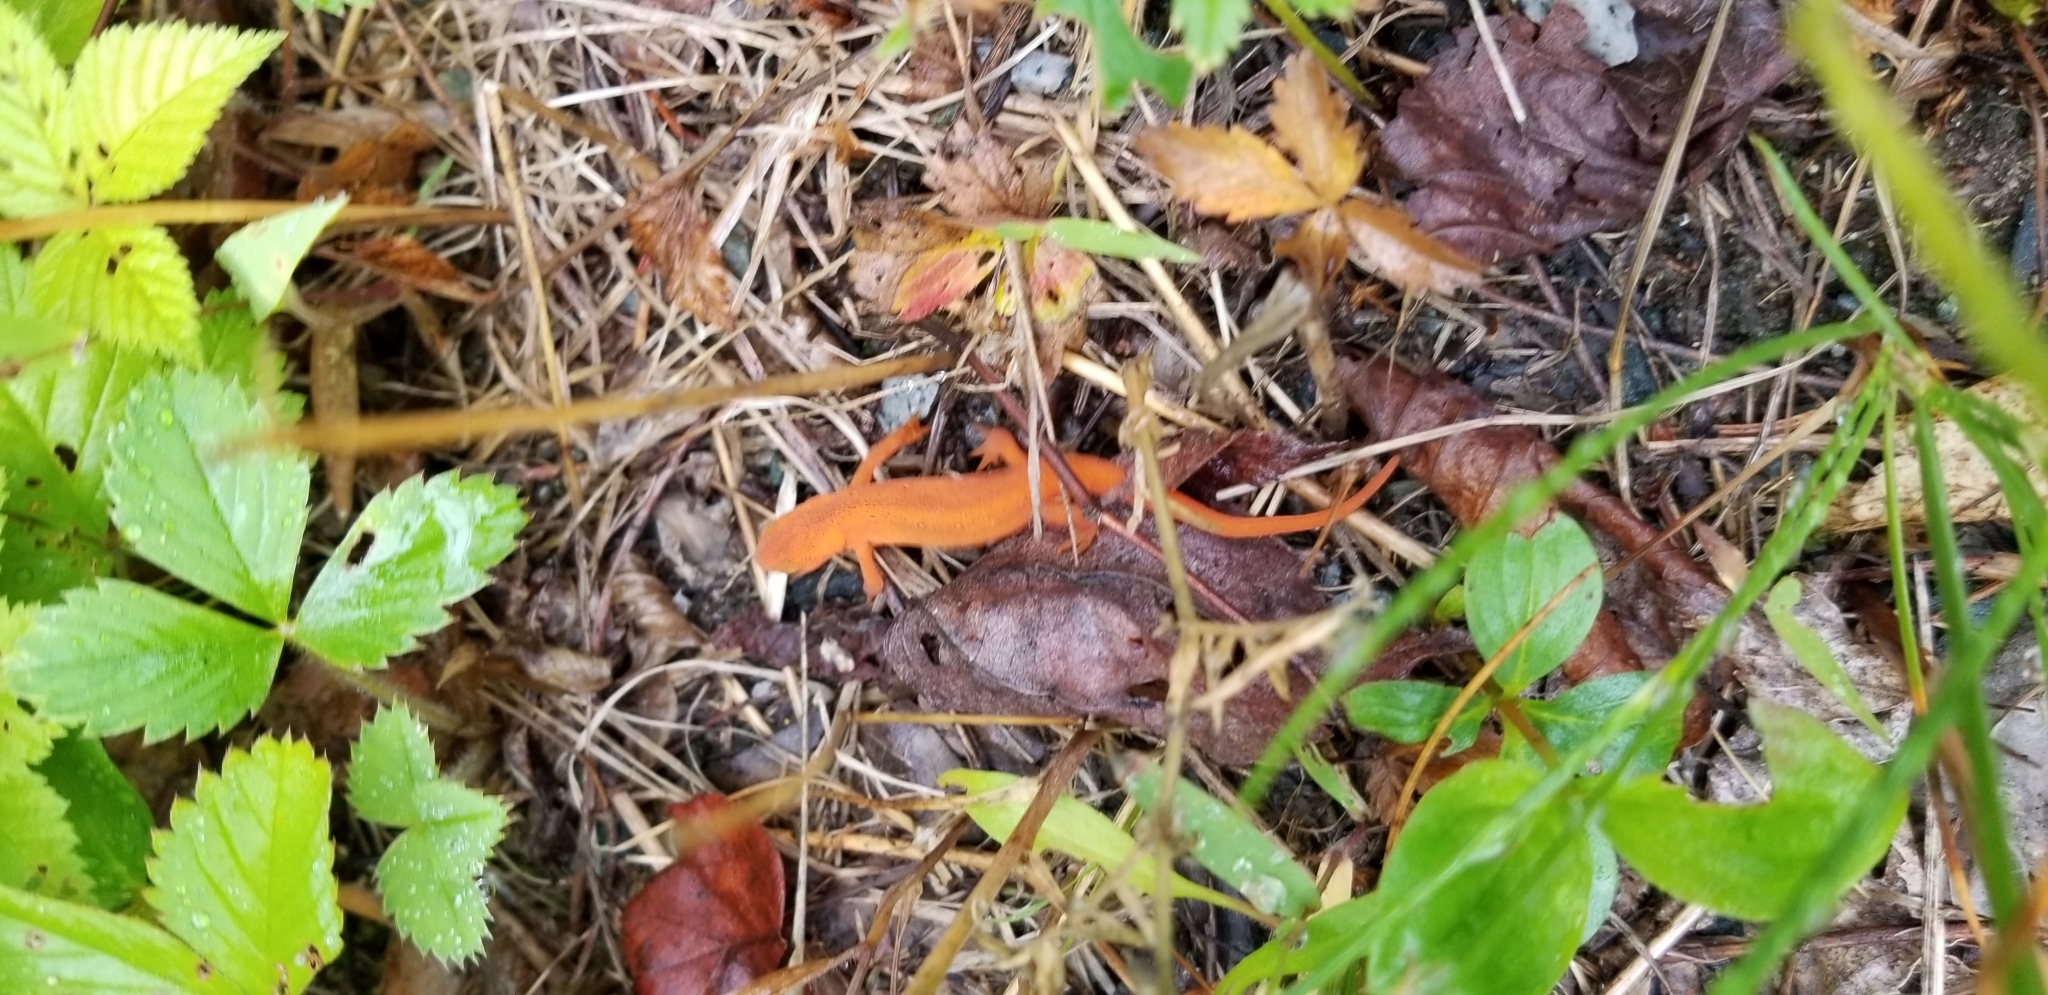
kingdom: Animalia
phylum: Chordata
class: Amphibia
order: Caudata
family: Salamandridae
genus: Notophthalmus
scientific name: Notophthalmus viridescens
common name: Eastern newt
